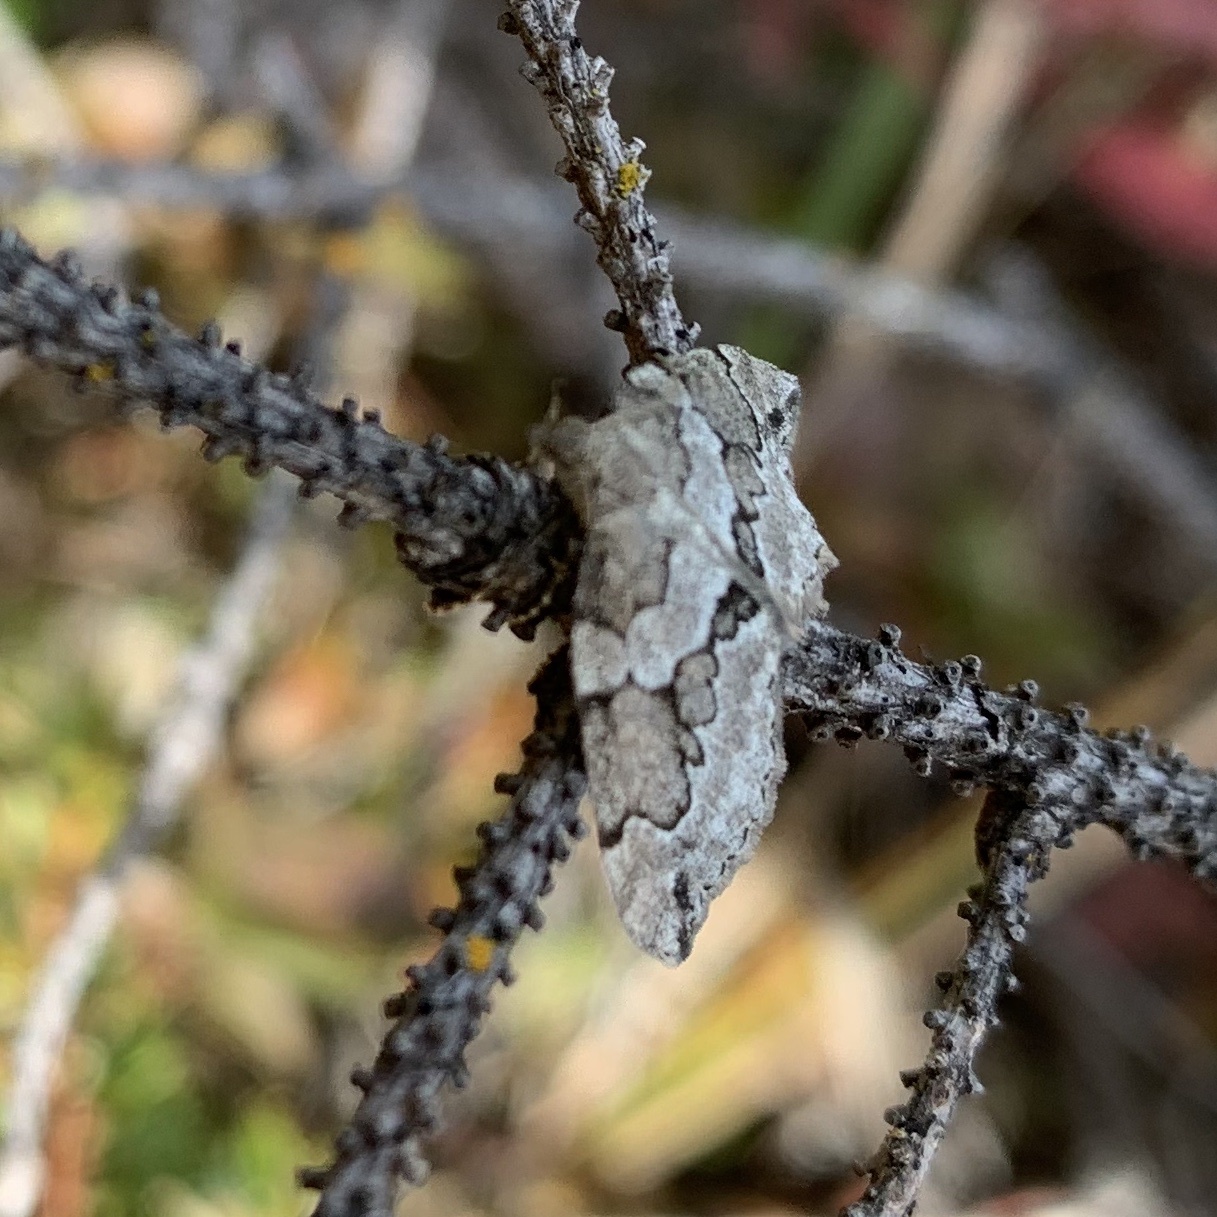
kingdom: Animalia
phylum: Arthropoda
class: Insecta
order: Lepidoptera
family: Geometridae
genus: Thera
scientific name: Thera juniperata
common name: Juniper carpet
